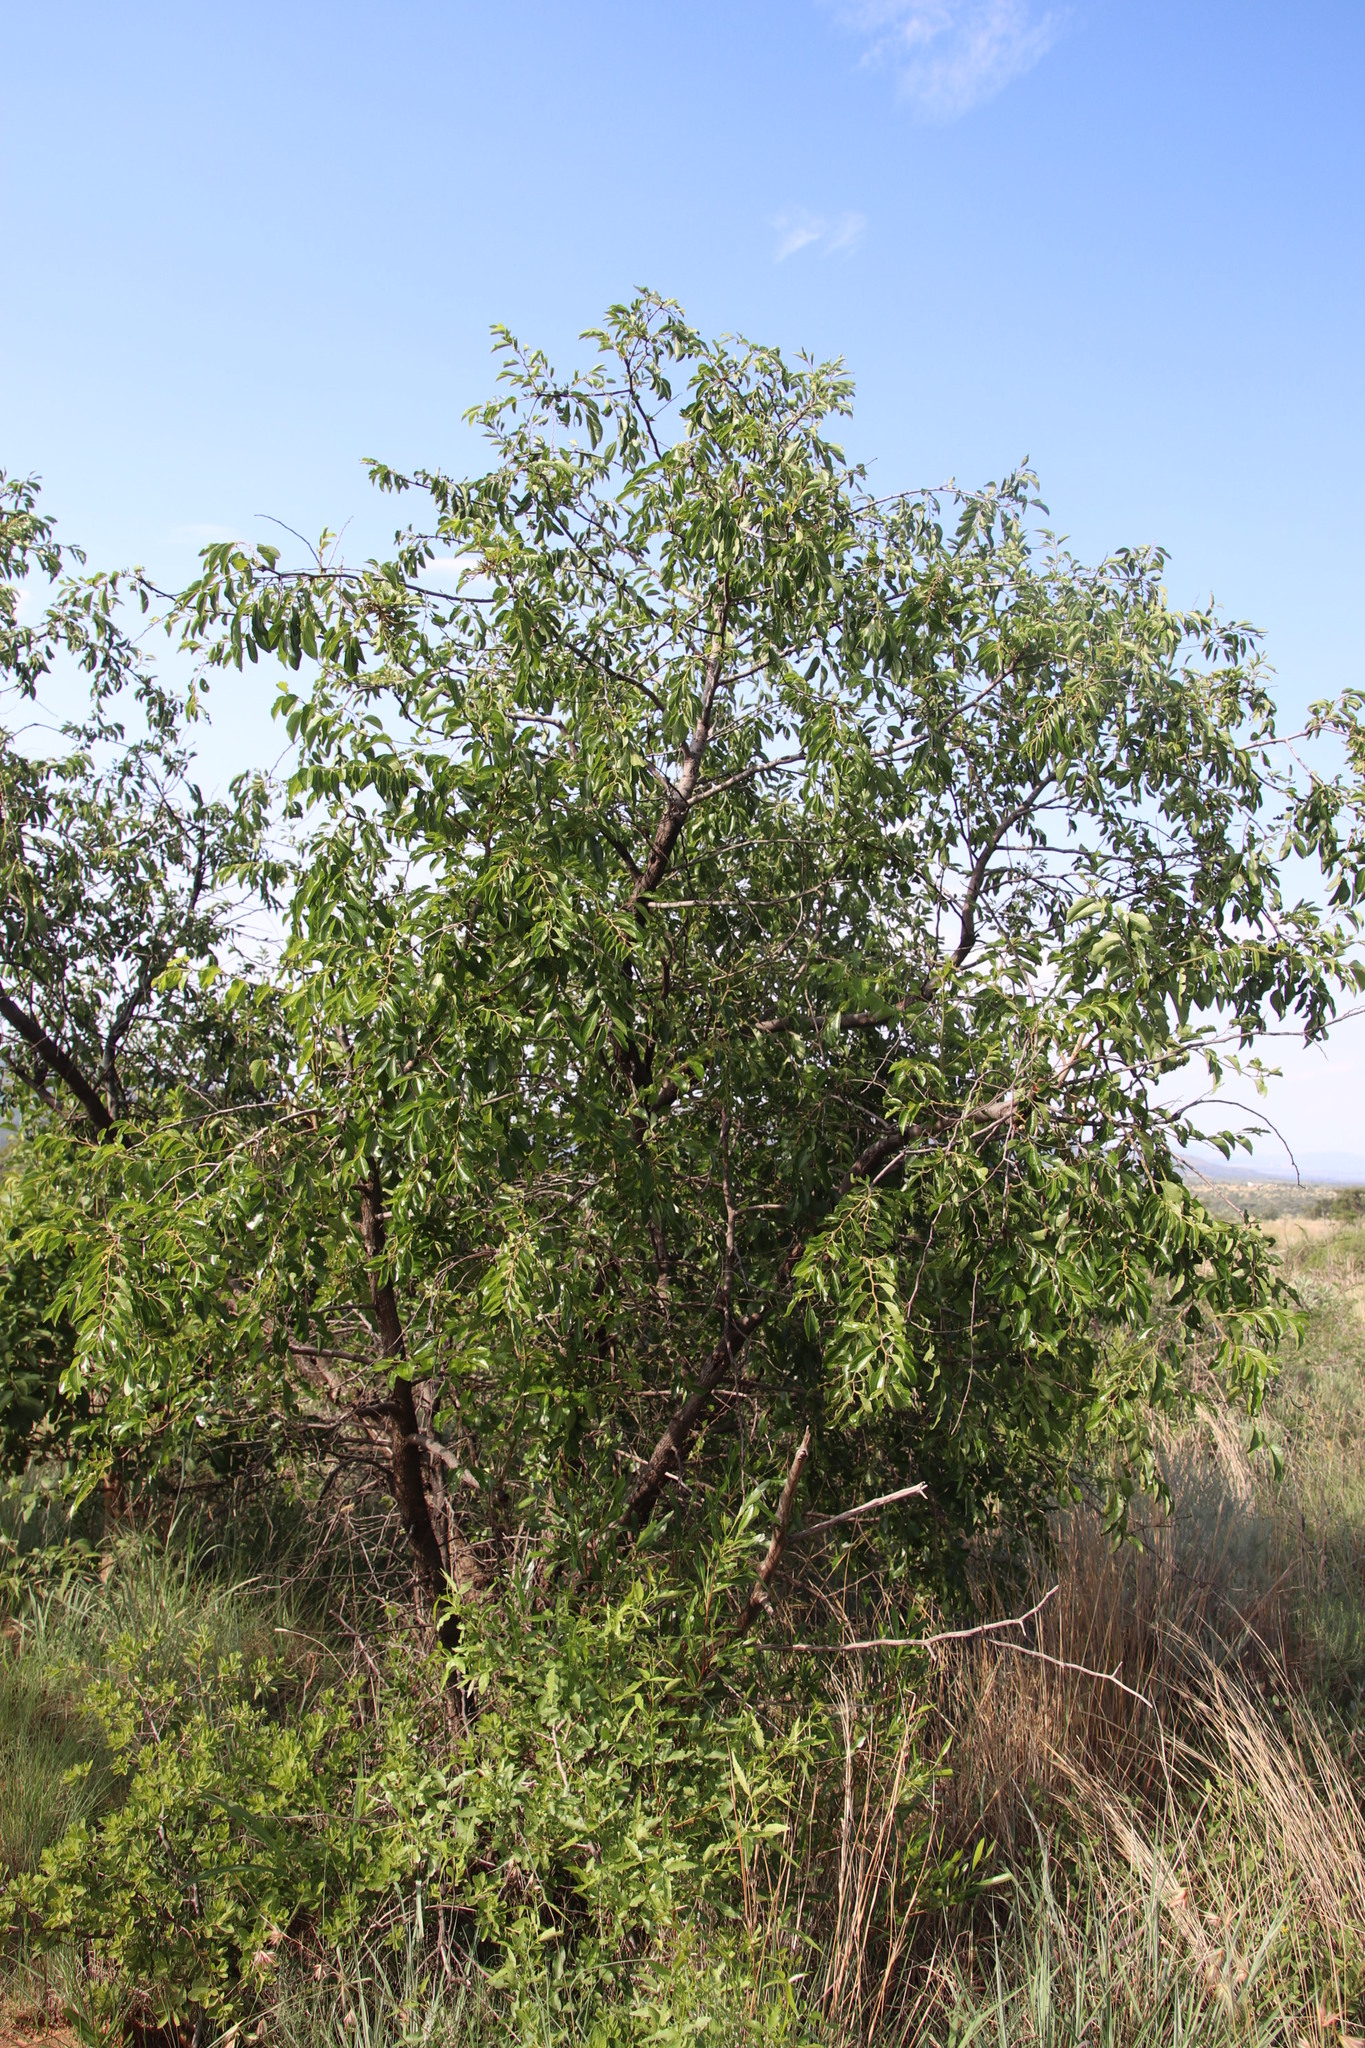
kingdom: Plantae
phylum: Tracheophyta
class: Magnoliopsida
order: Rosales
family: Rhamnaceae
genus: Ziziphus
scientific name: Ziziphus mucronata
